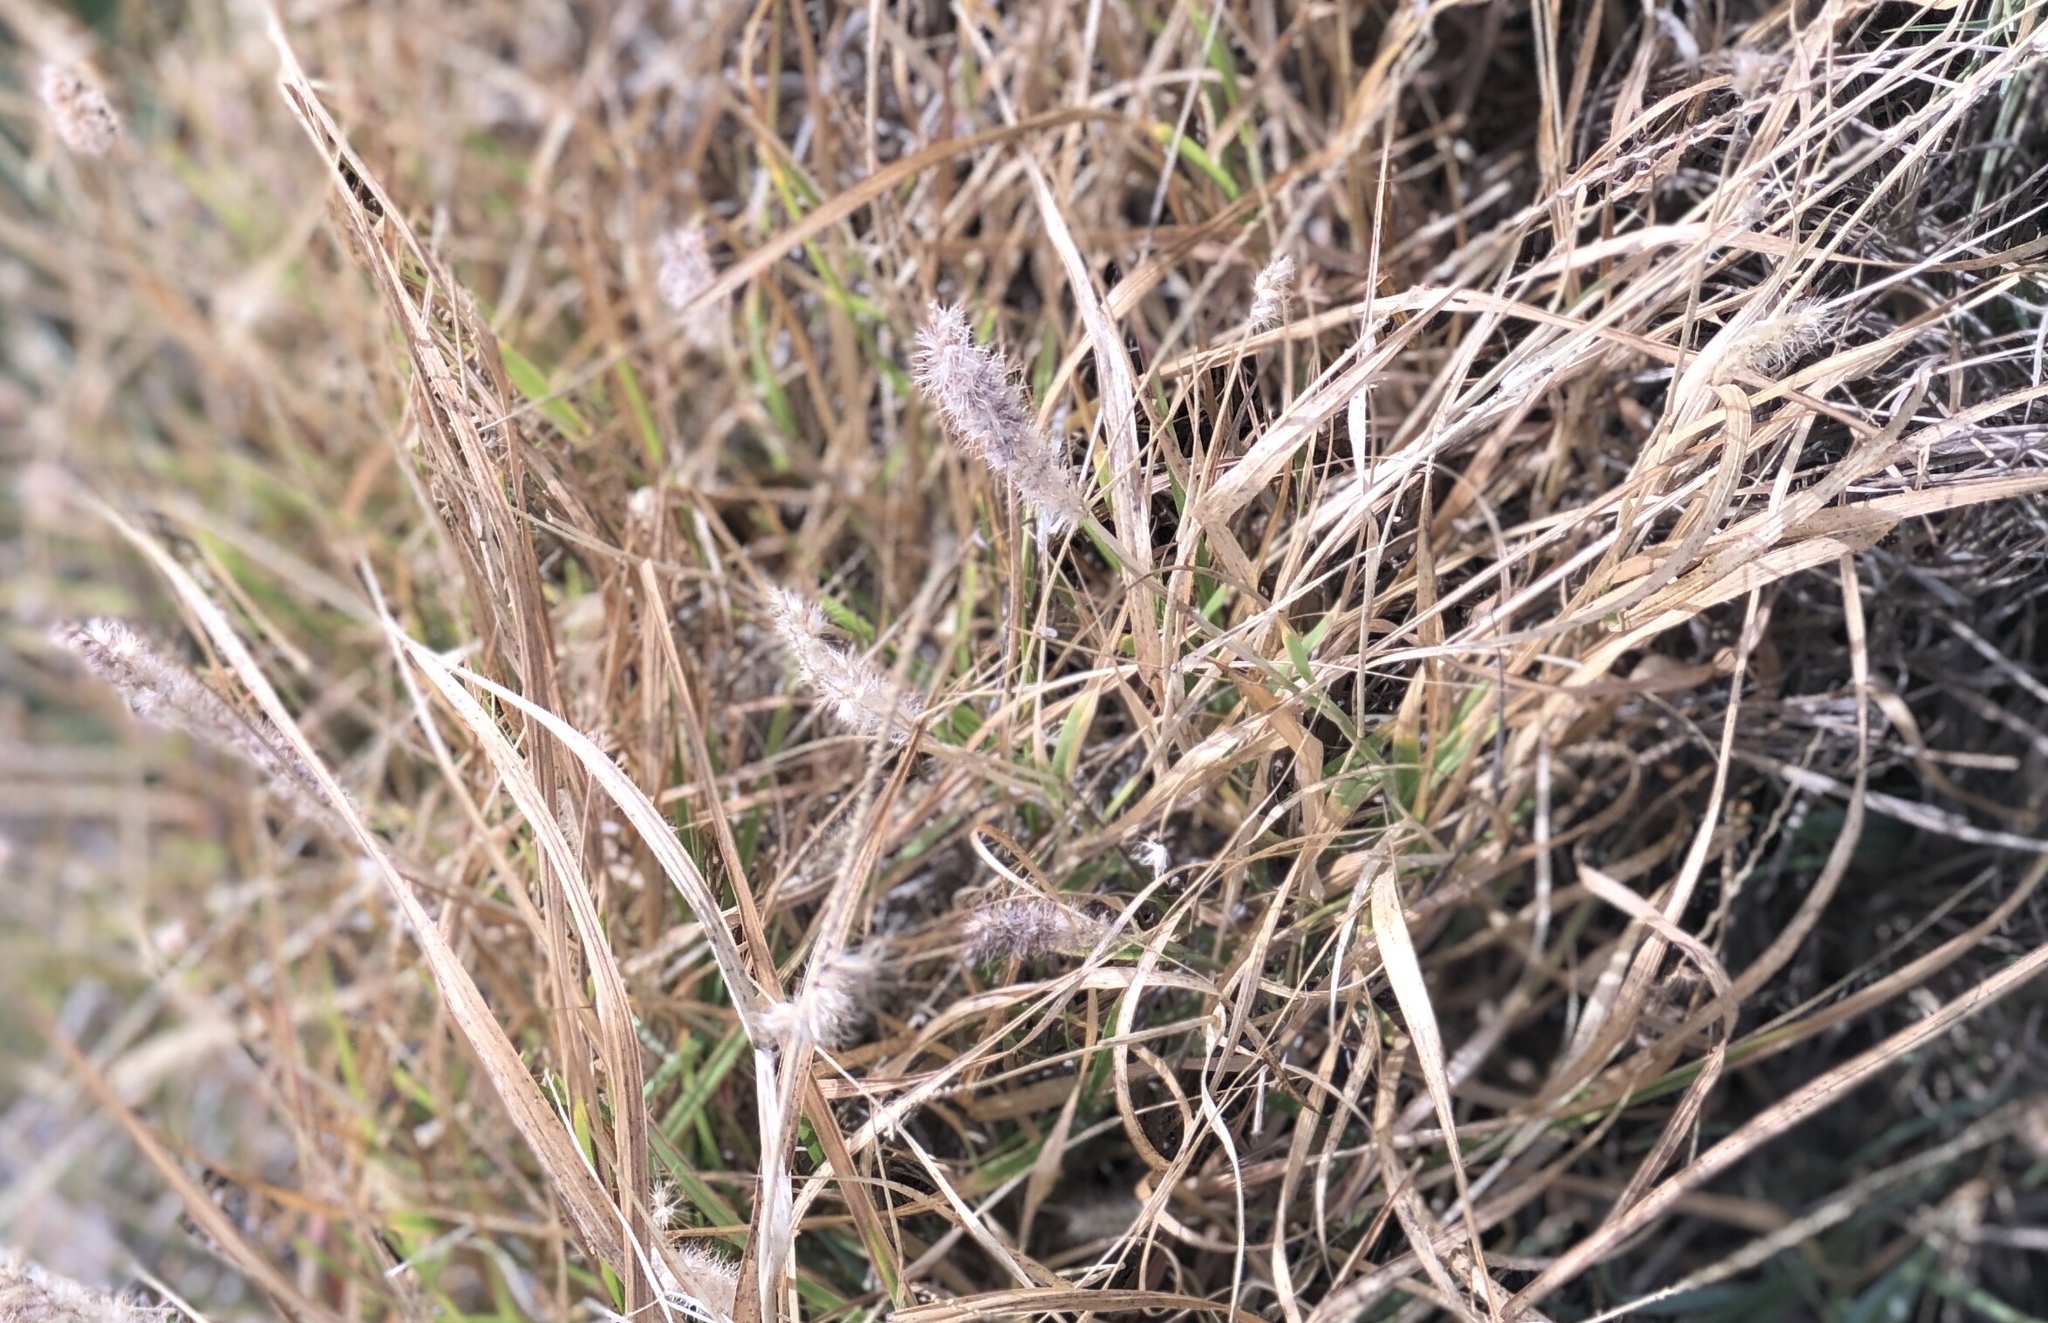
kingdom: Plantae
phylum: Tracheophyta
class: Liliopsida
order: Poales
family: Poaceae
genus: Cenchrus
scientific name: Cenchrus ciliaris
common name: Buffelgrass
